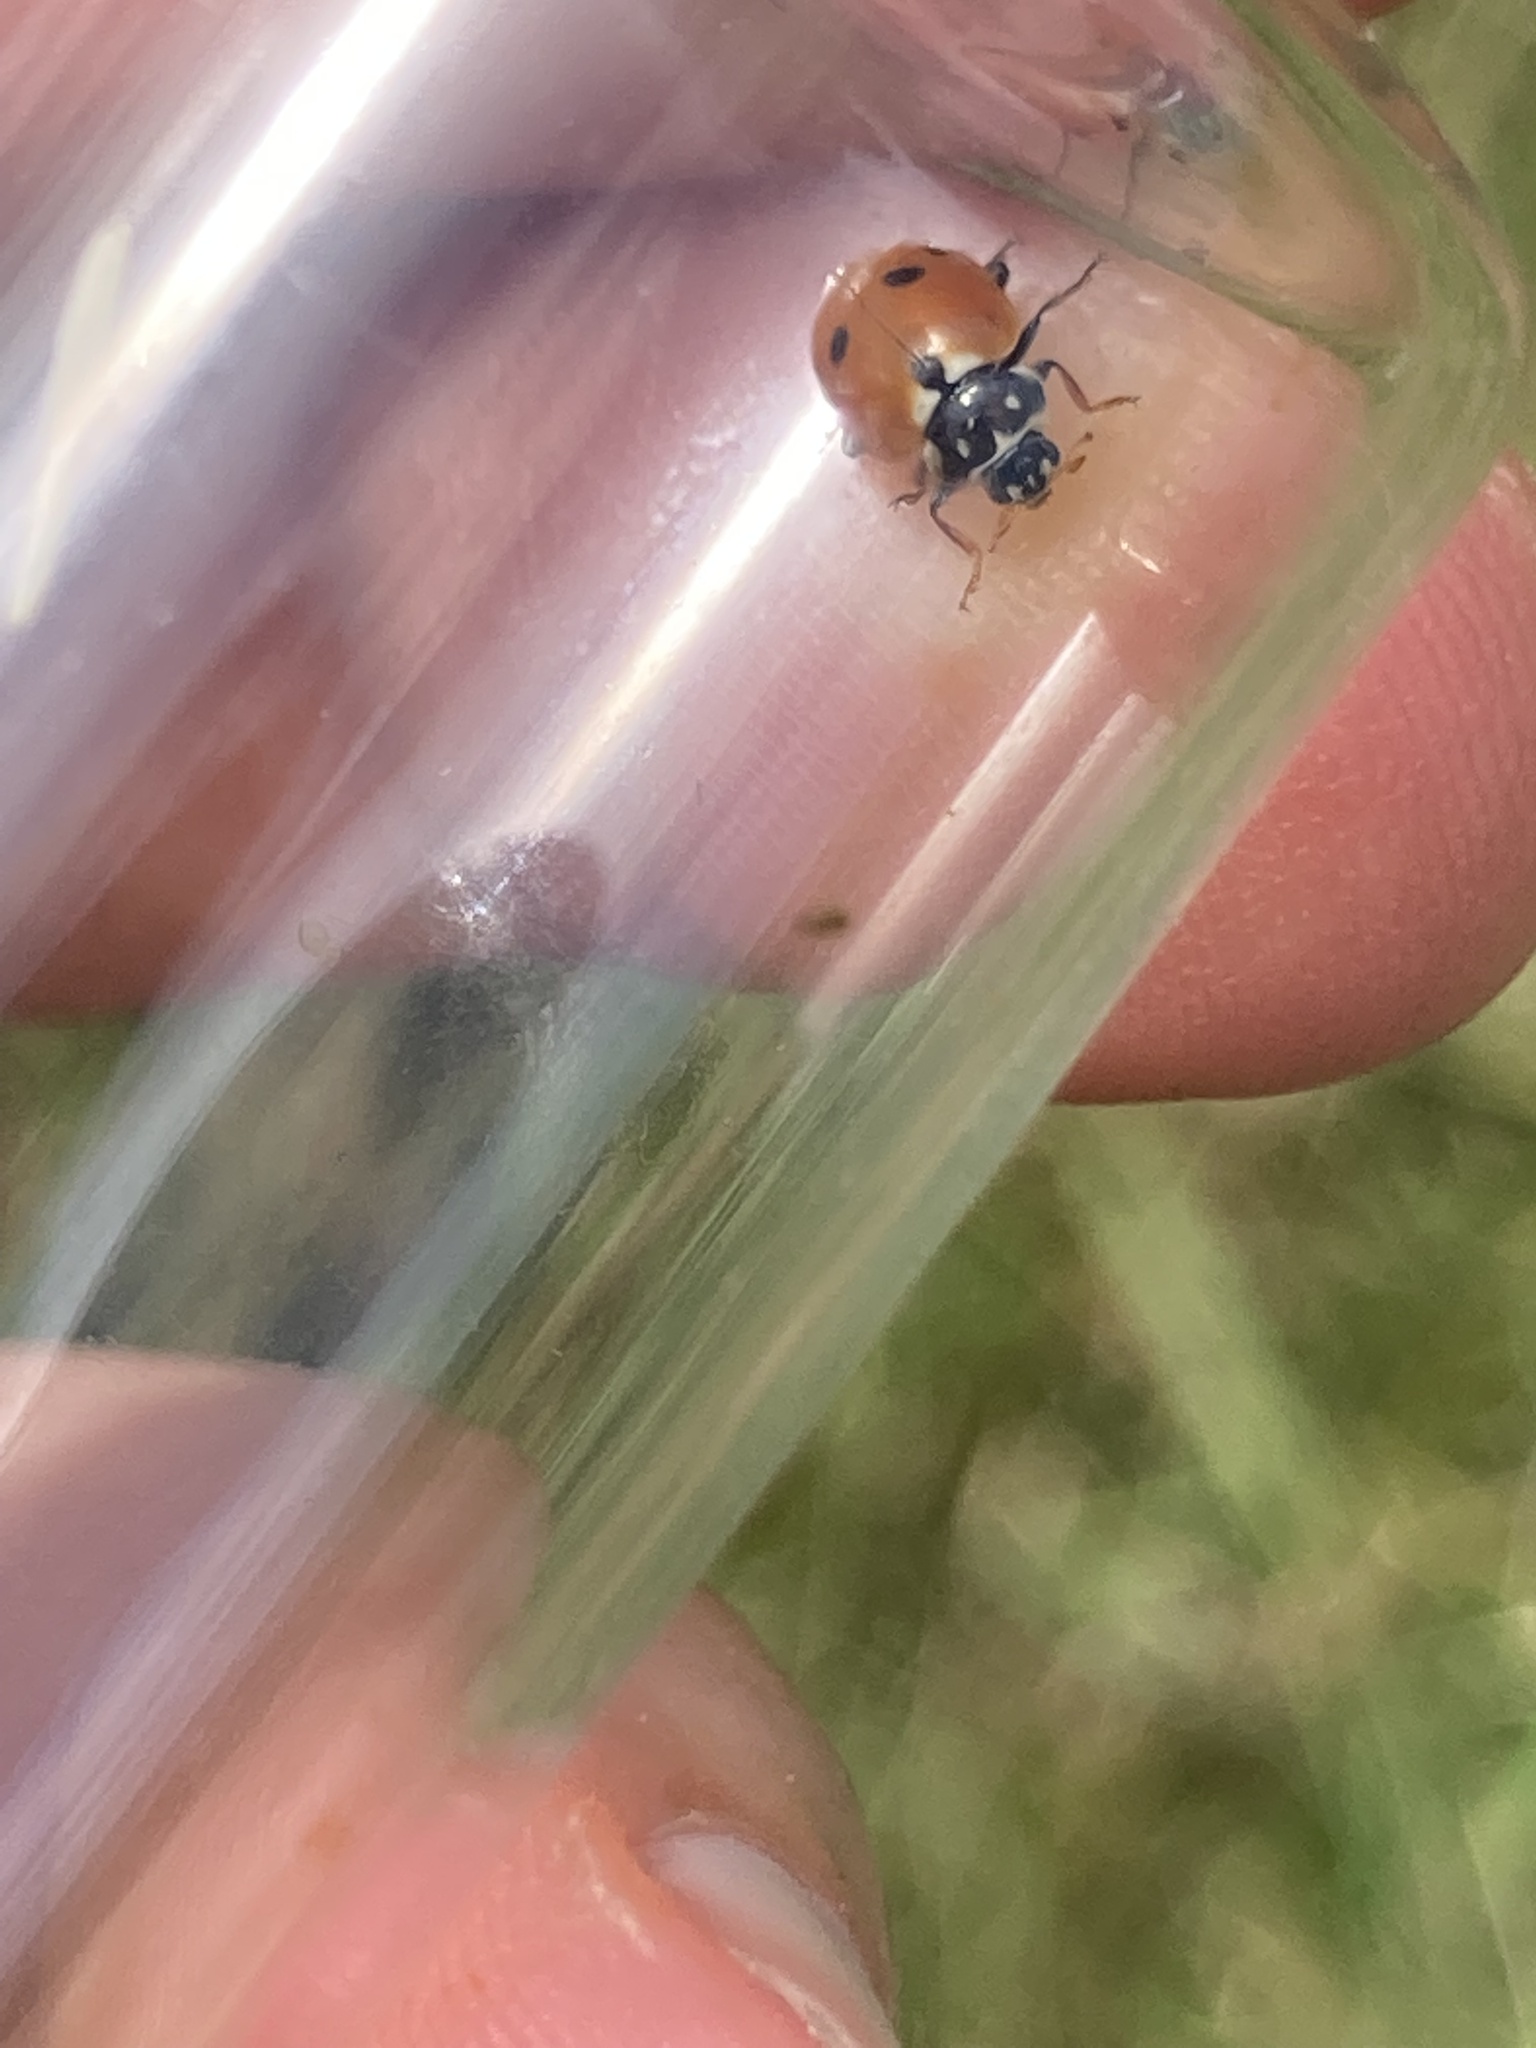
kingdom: Animalia
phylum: Arthropoda
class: Insecta
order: Coleoptera
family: Coccinellidae
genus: Hippodamia
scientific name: Hippodamia variegata
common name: Ladybird beetle
